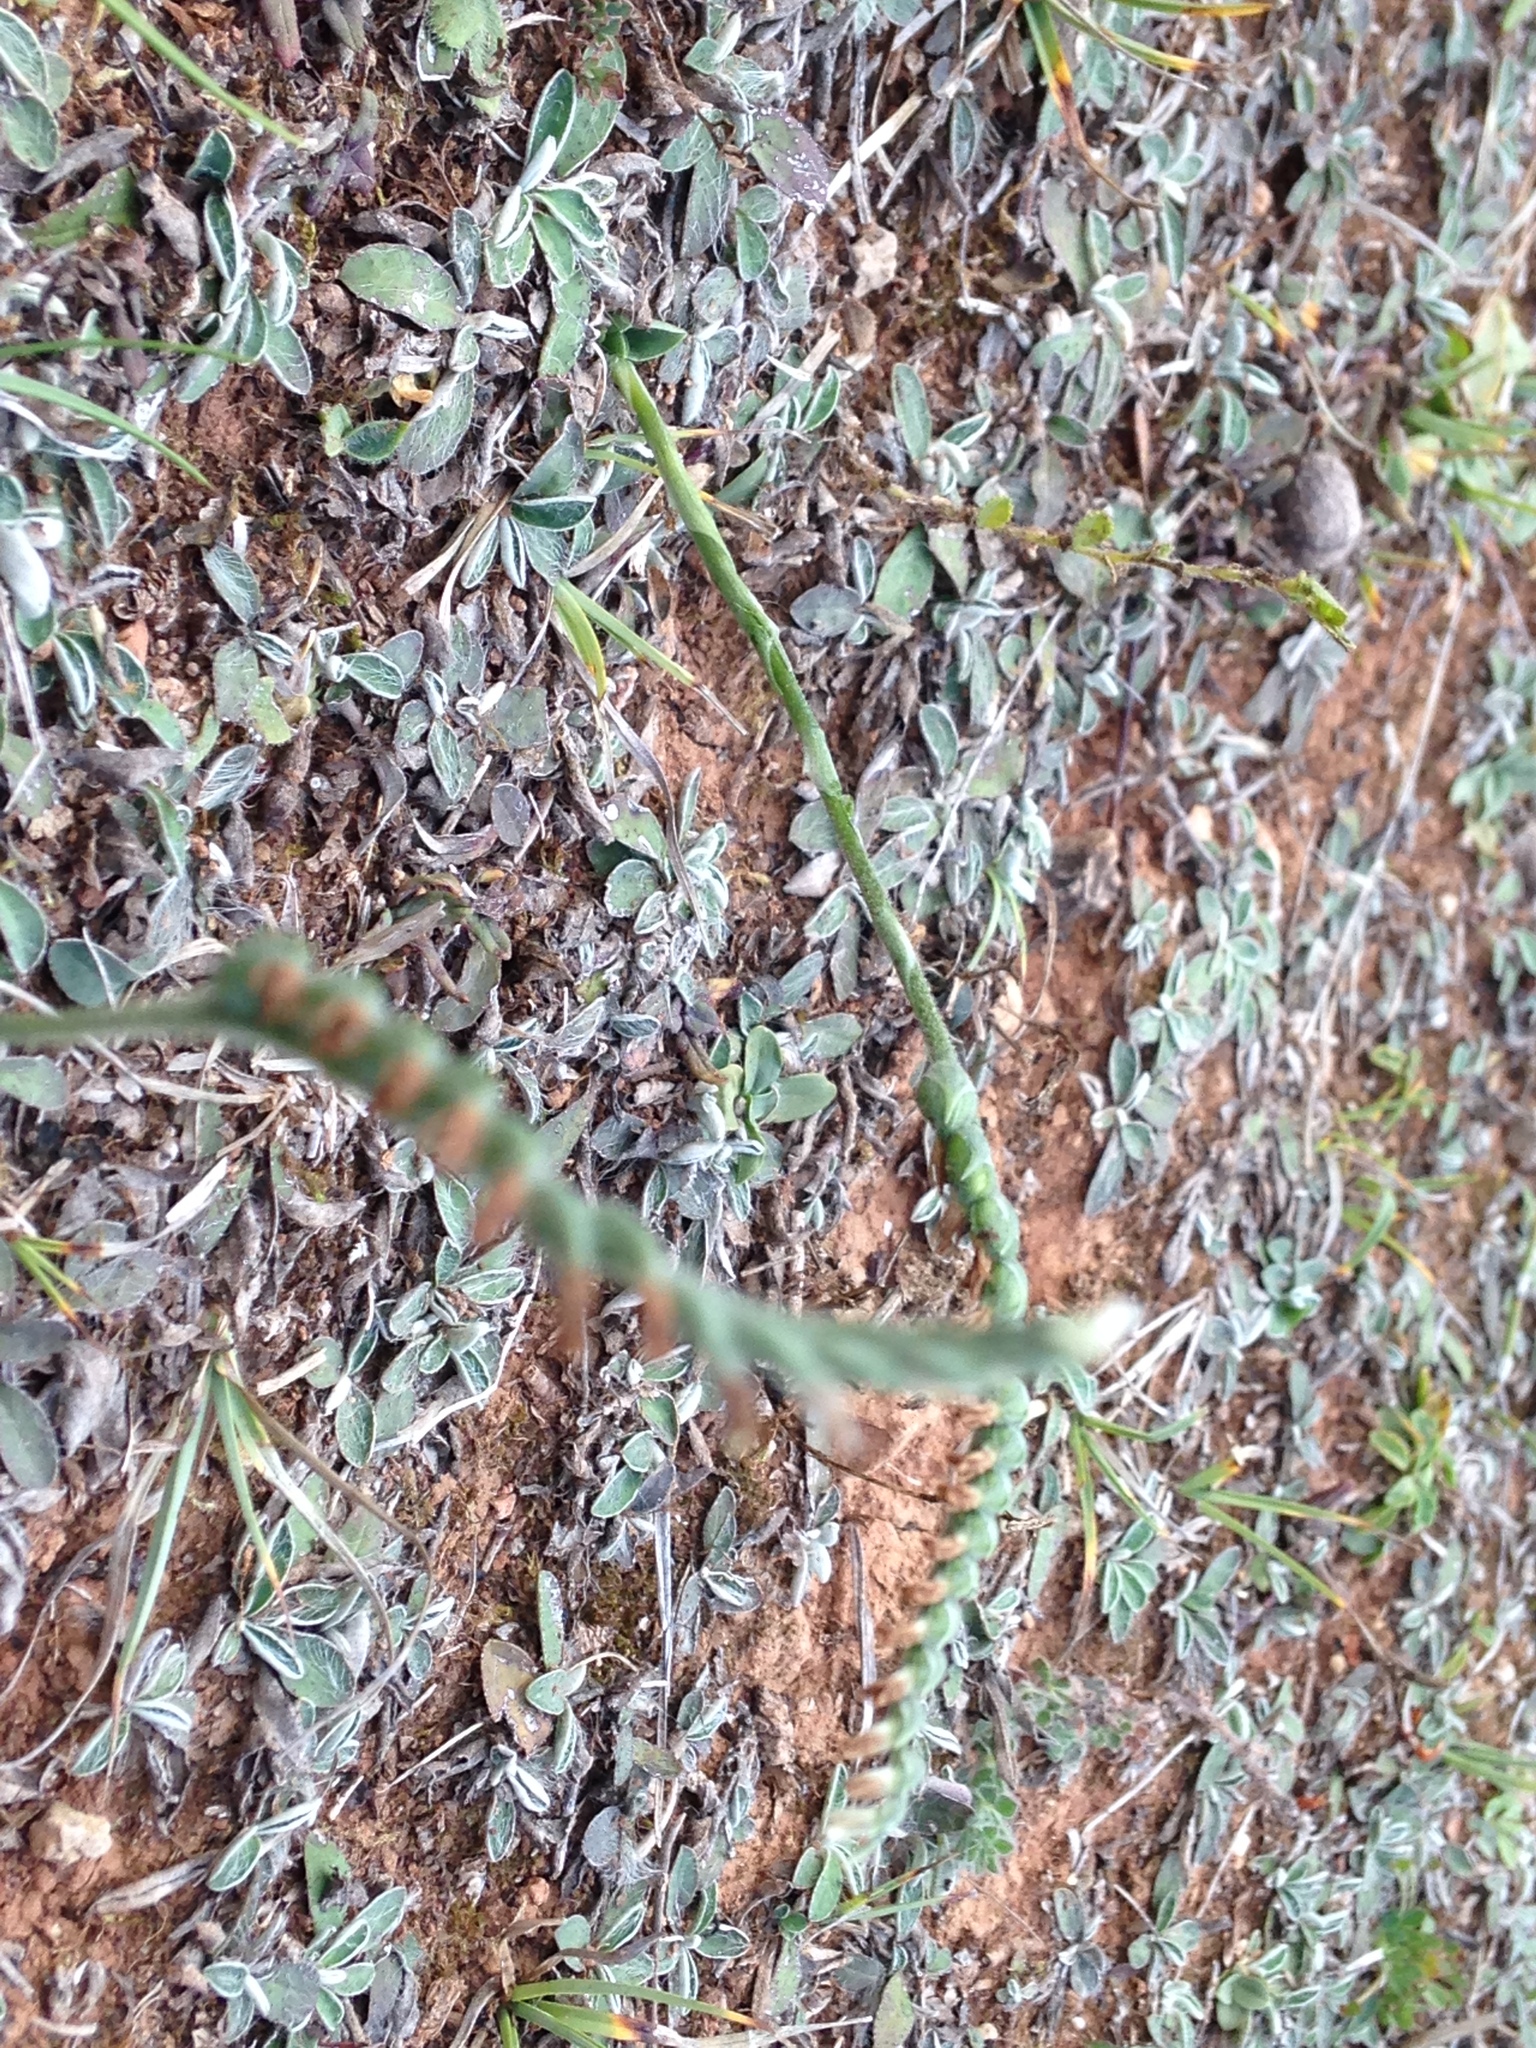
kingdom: Plantae
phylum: Tracheophyta
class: Liliopsida
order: Asparagales
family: Orchidaceae
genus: Spiranthes
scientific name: Spiranthes spiralis
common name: Autumn lady's-tresses
